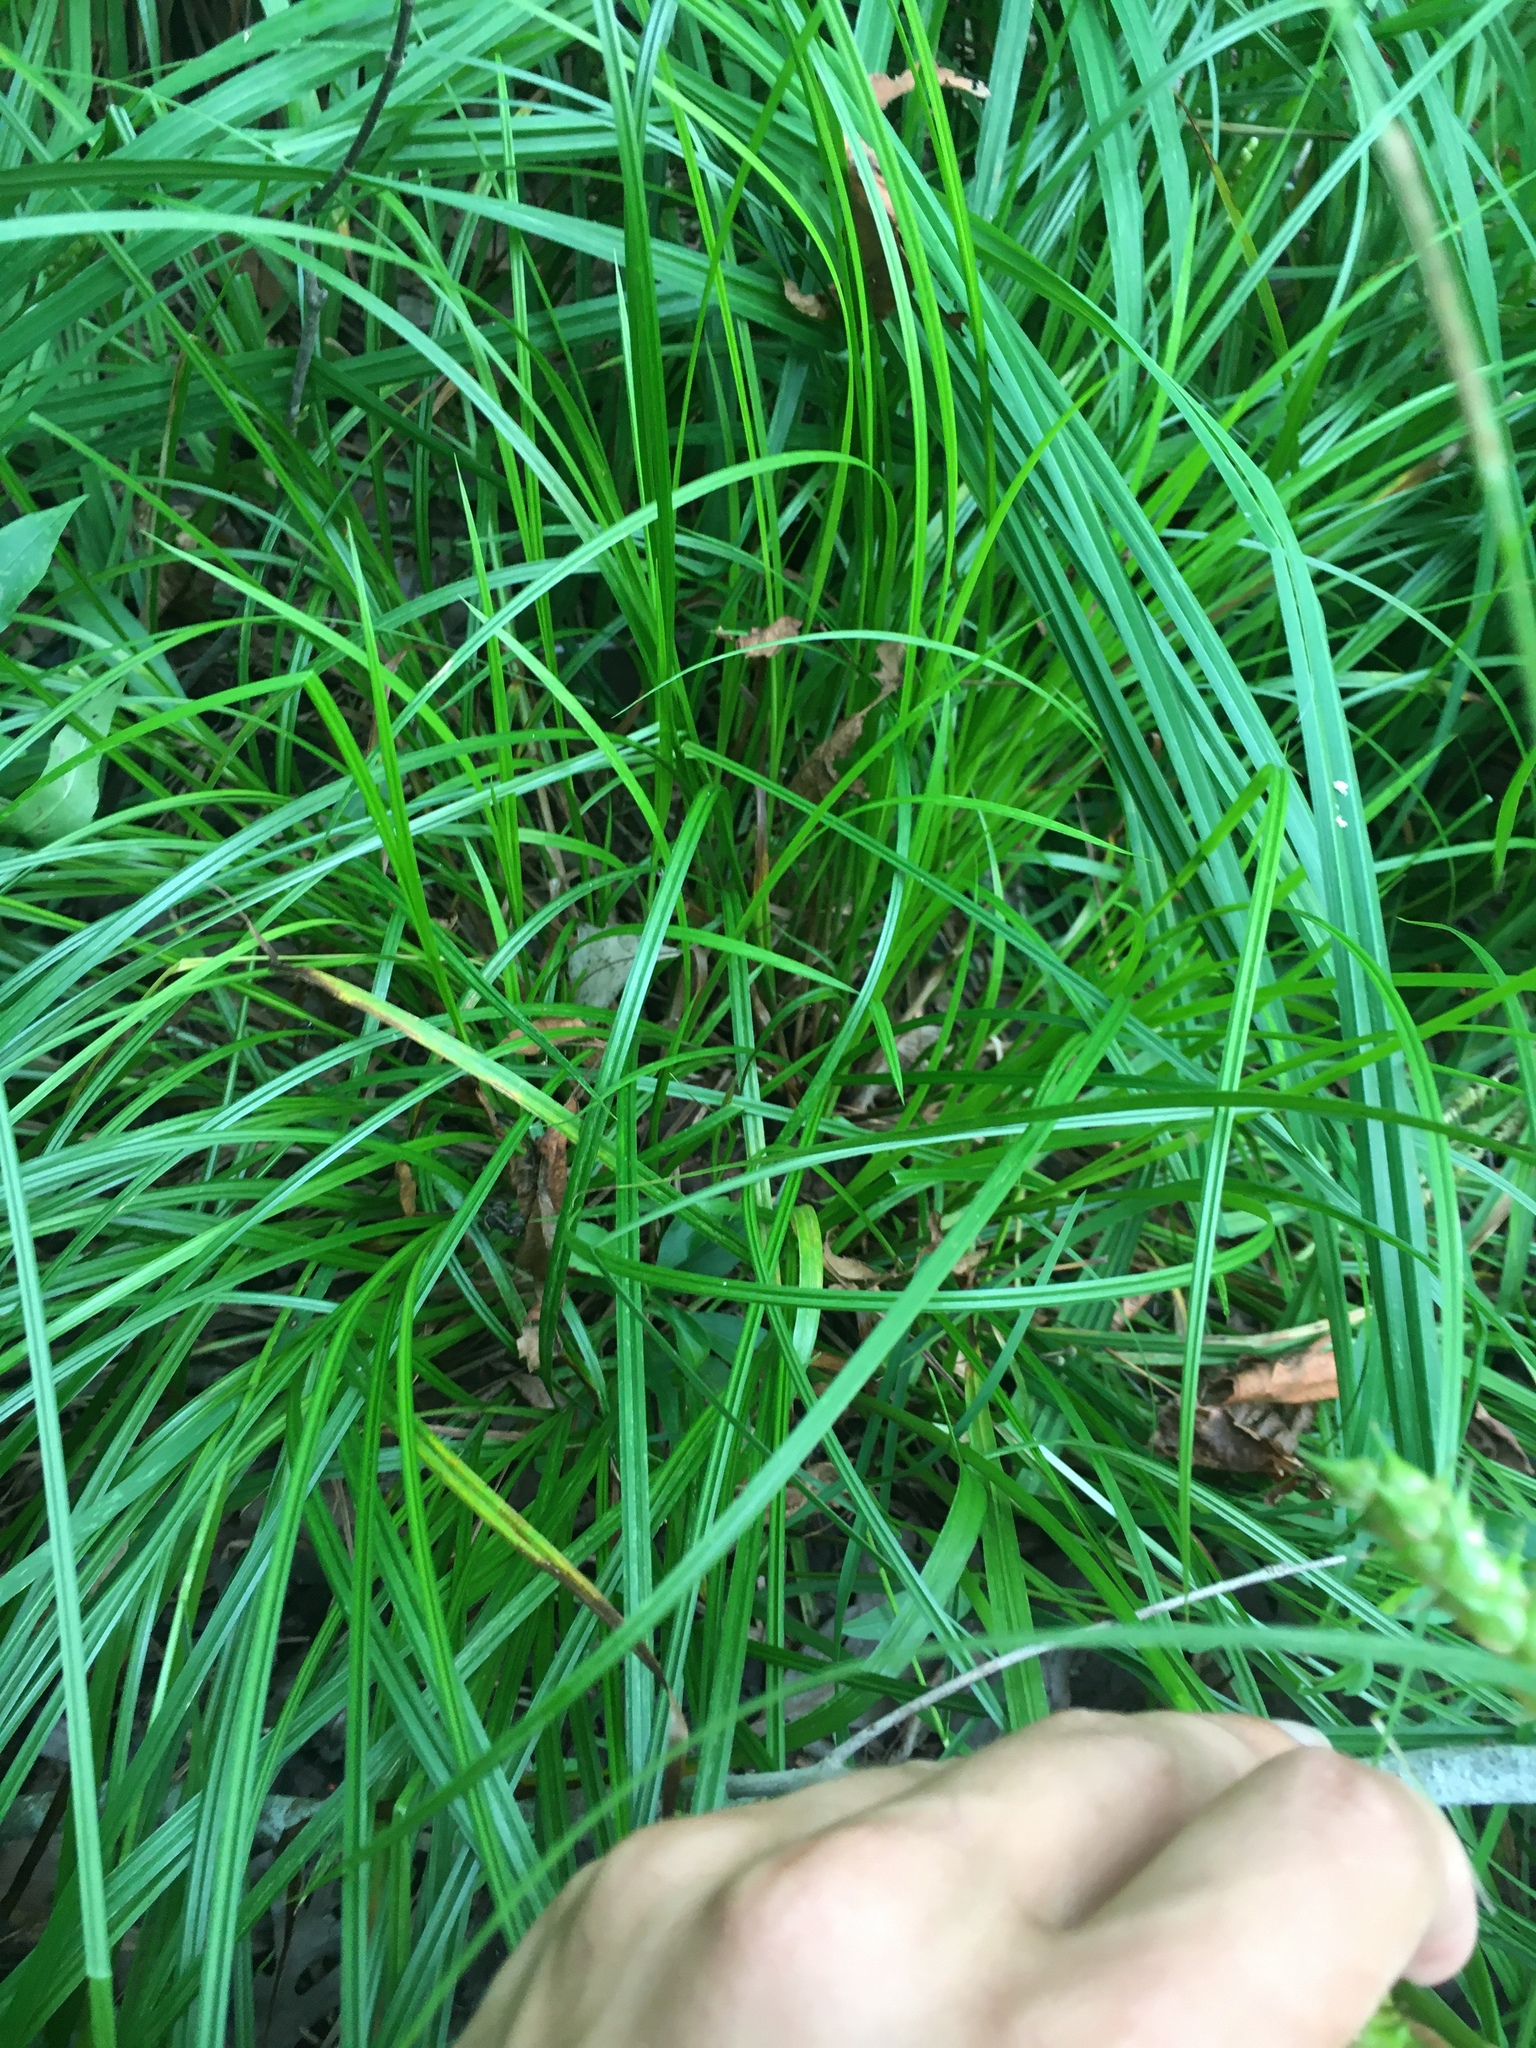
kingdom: Plantae
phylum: Tracheophyta
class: Liliopsida
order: Poales
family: Cyperaceae
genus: Carex
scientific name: Carex tuckermanii
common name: Tuckerman's sedge
